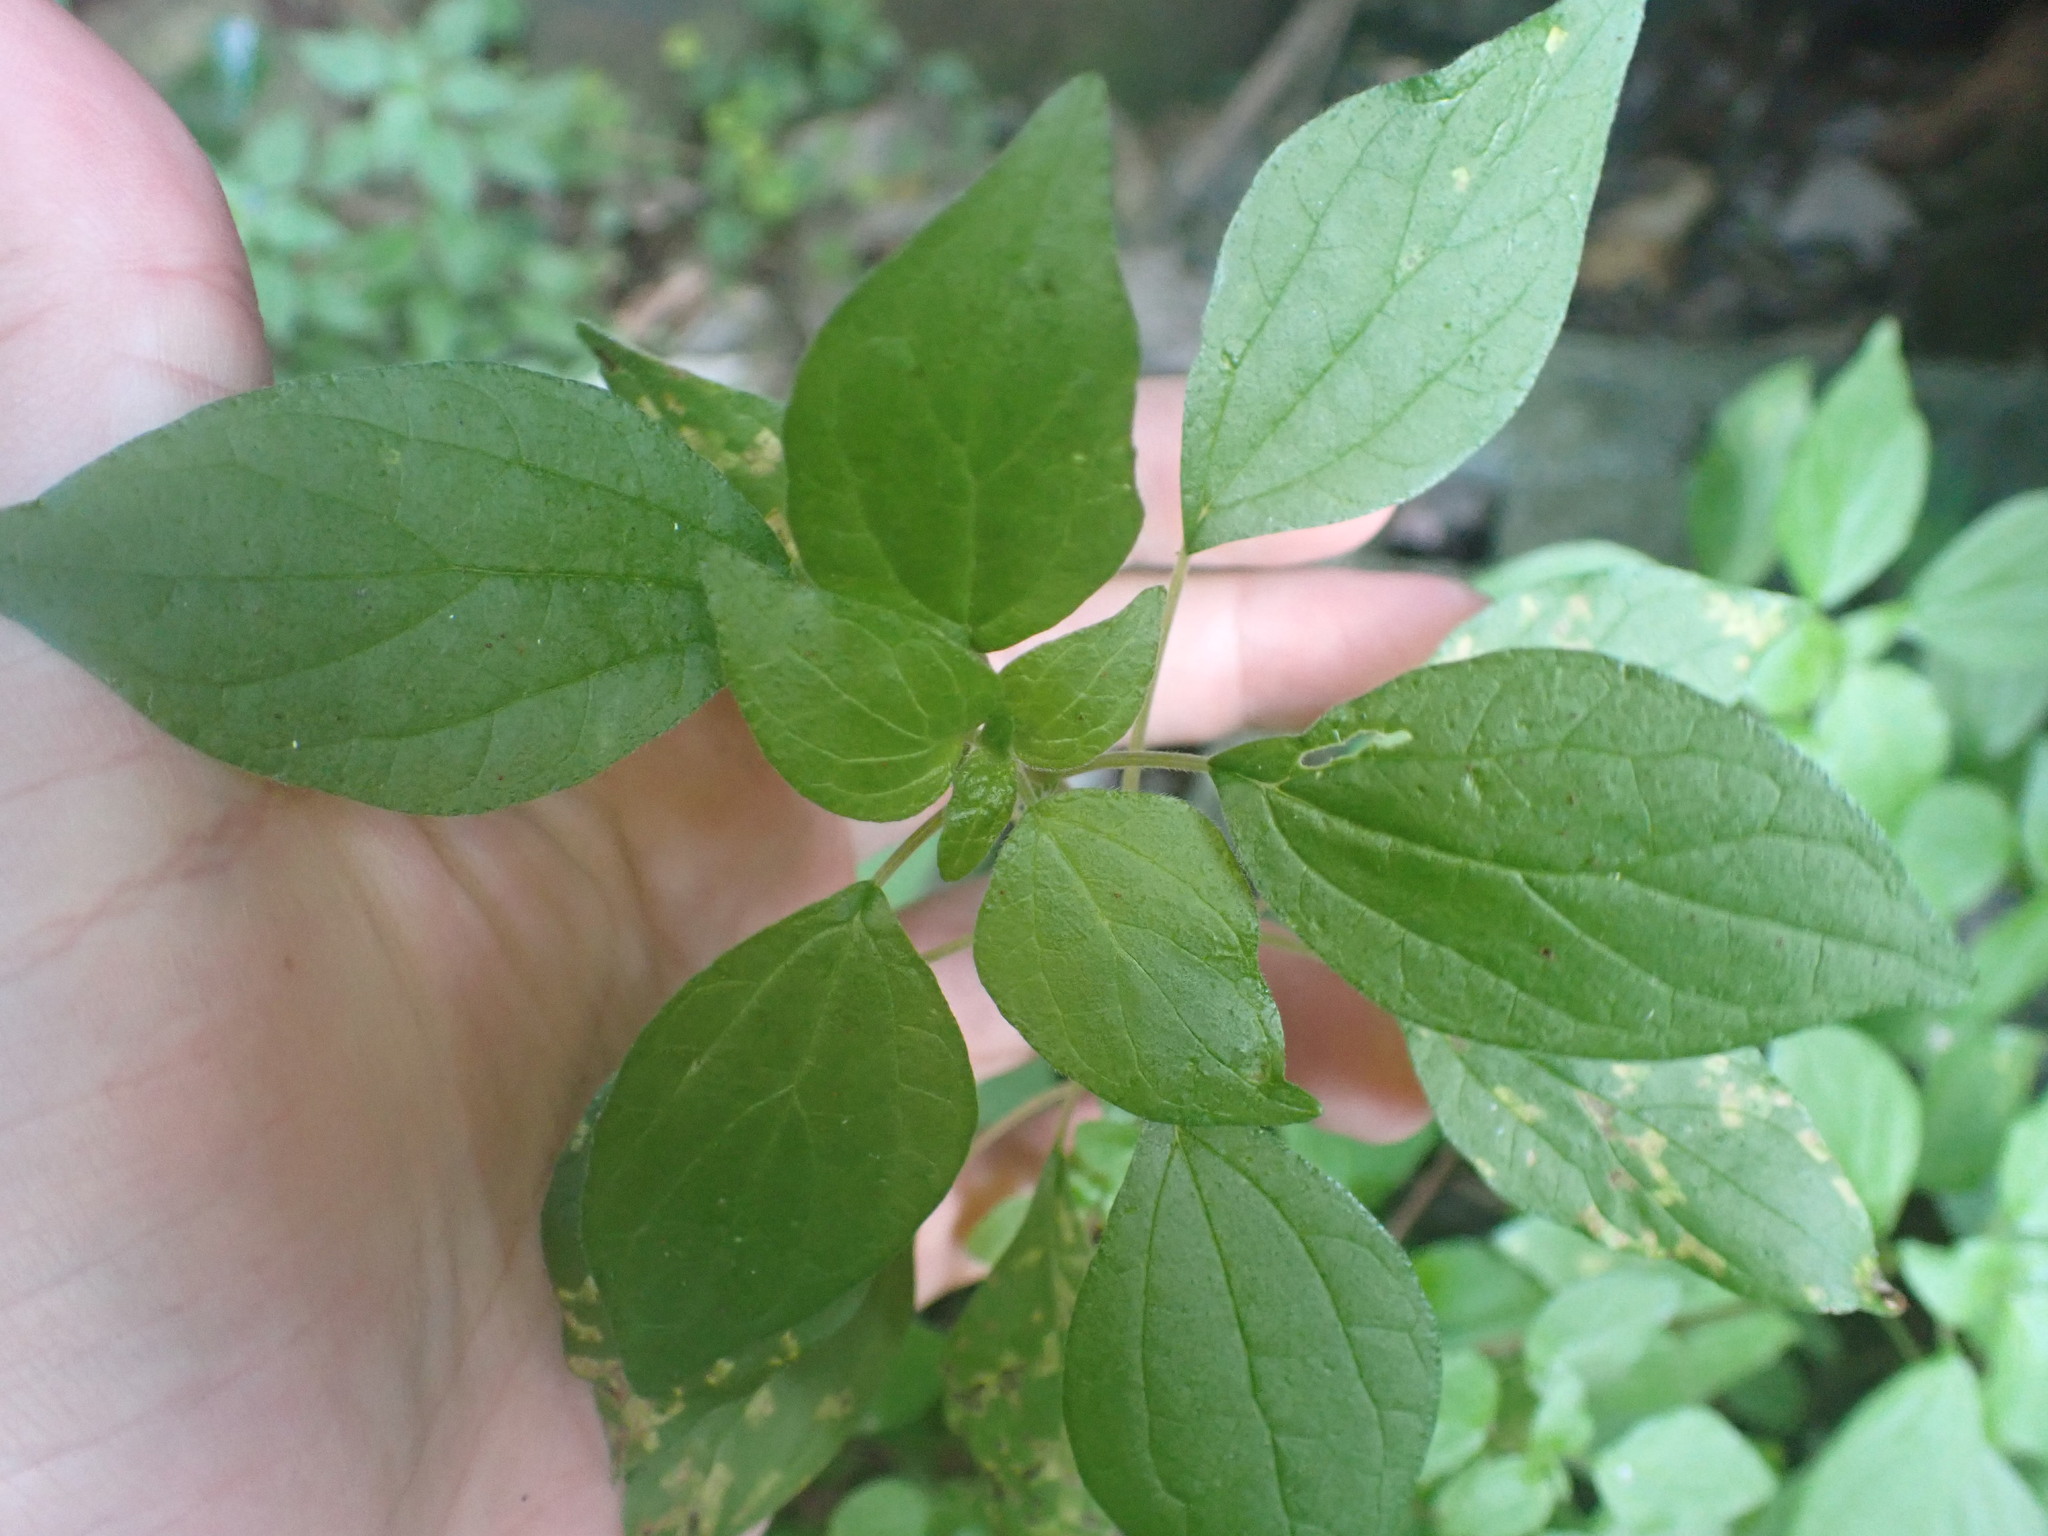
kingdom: Plantae
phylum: Tracheophyta
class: Magnoliopsida
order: Rosales
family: Urticaceae
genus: Parietaria
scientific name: Parietaria judaica
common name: Pellitory-of-the-wall
